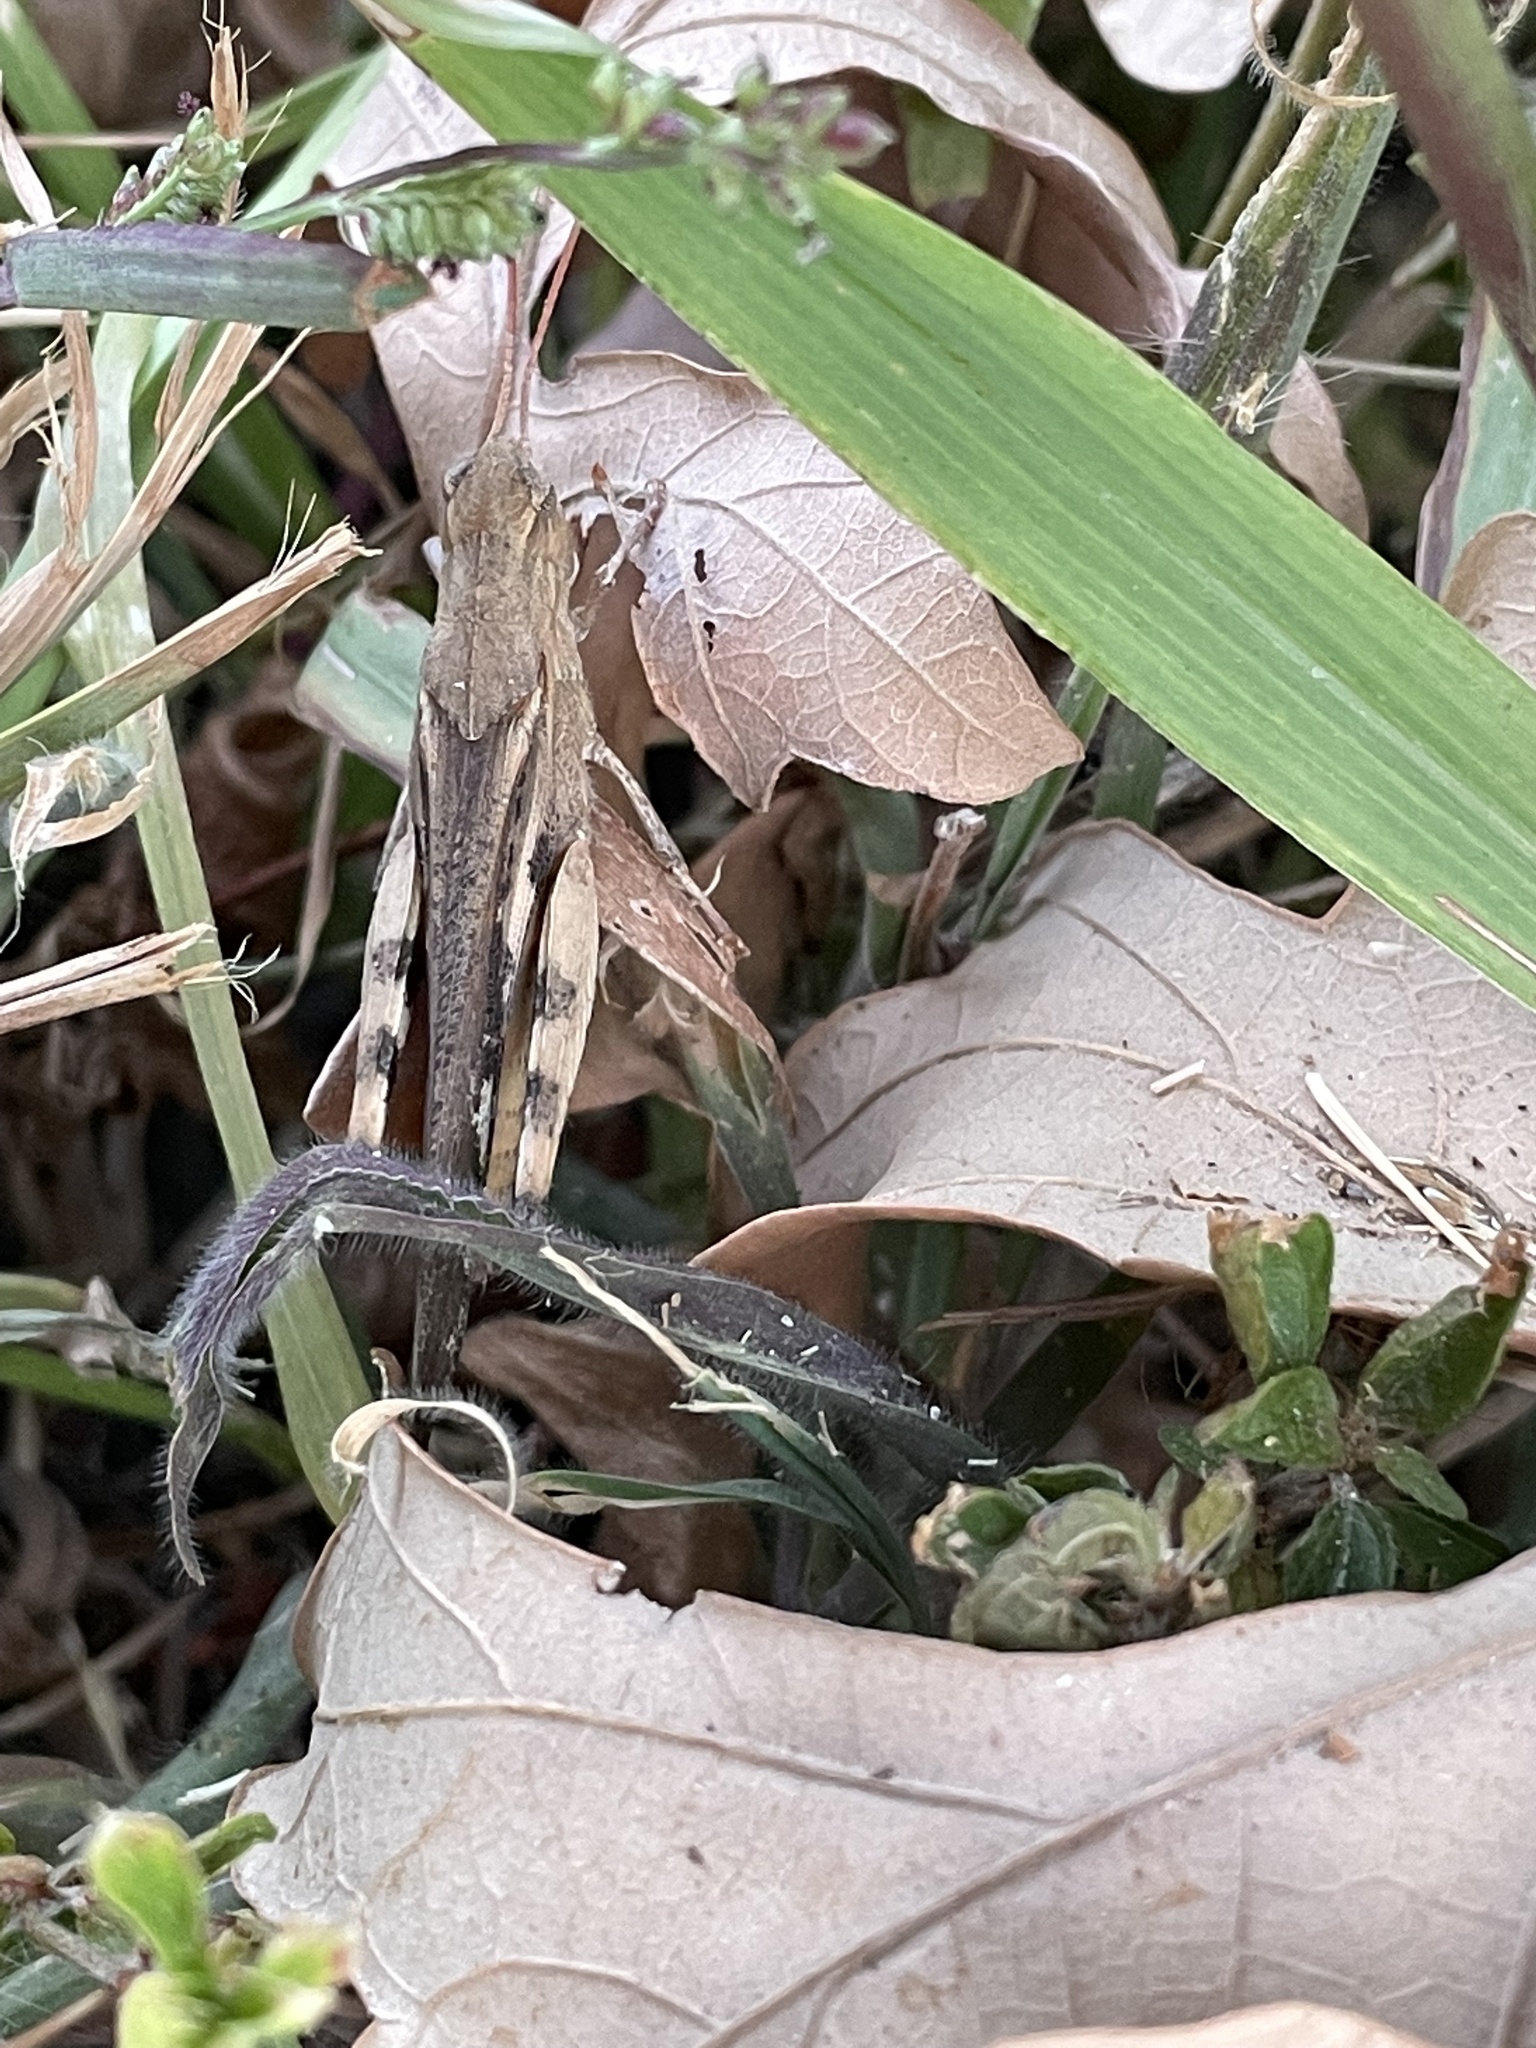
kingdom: Animalia
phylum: Arthropoda
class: Insecta
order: Orthoptera
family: Acrididae
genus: Chortophaga
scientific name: Chortophaga viridifasciata
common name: Green-striped grasshopper
